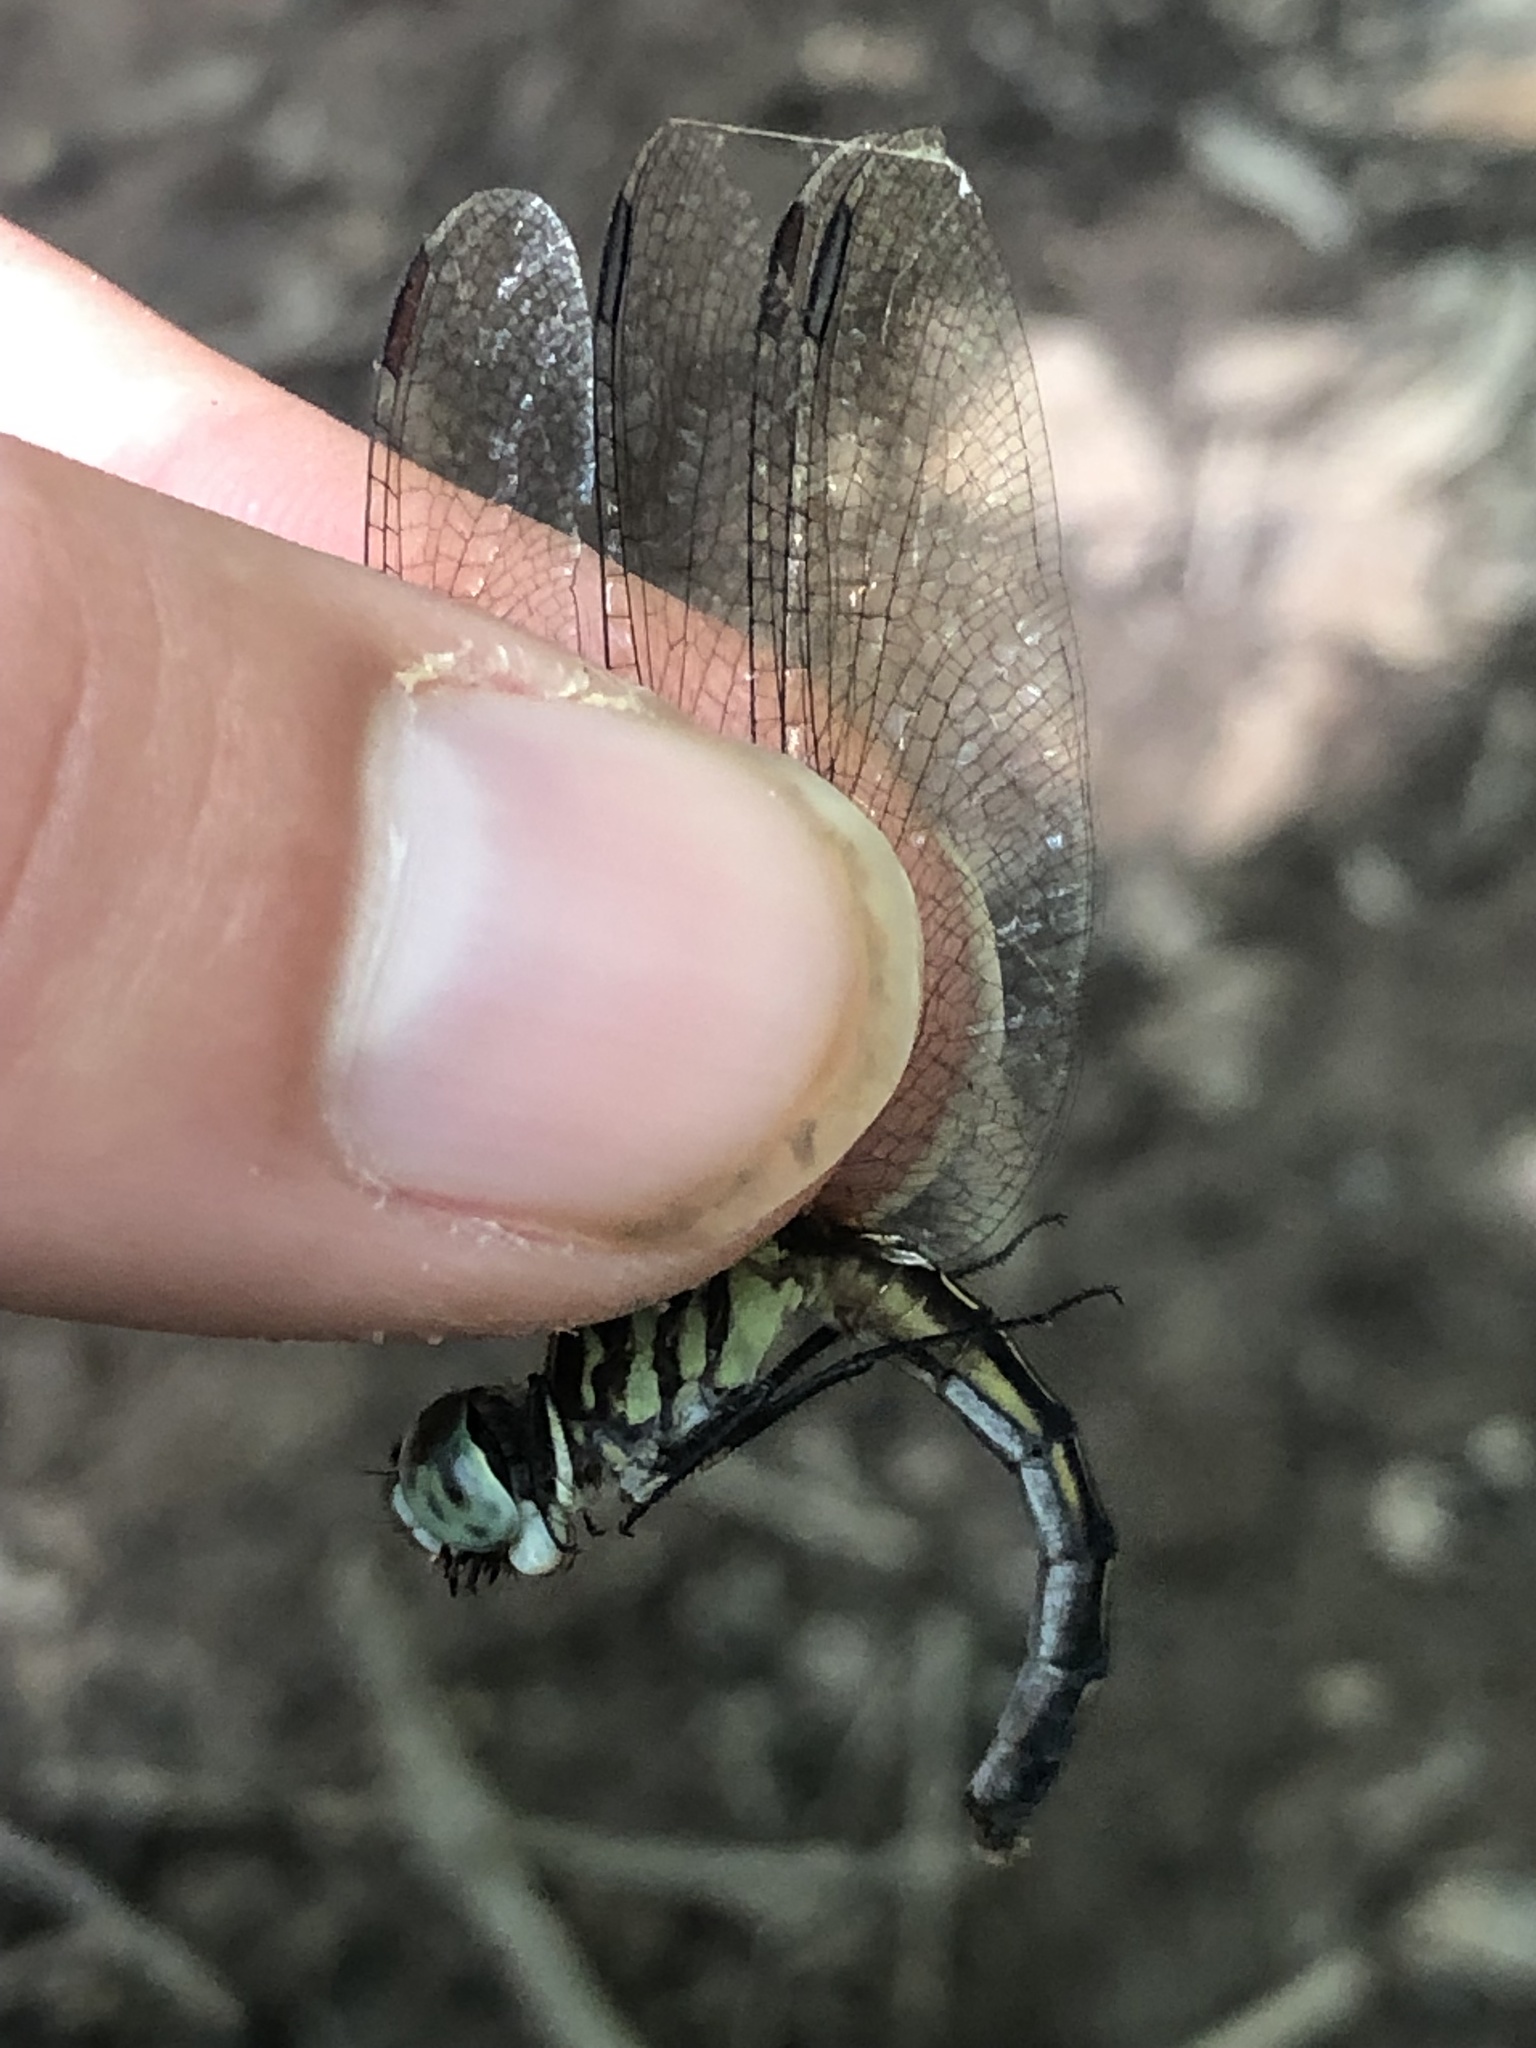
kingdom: Animalia
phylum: Arthropoda
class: Insecta
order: Odonata
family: Libellulidae
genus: Pachydiplax
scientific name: Pachydiplax longipennis
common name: Blue dasher
